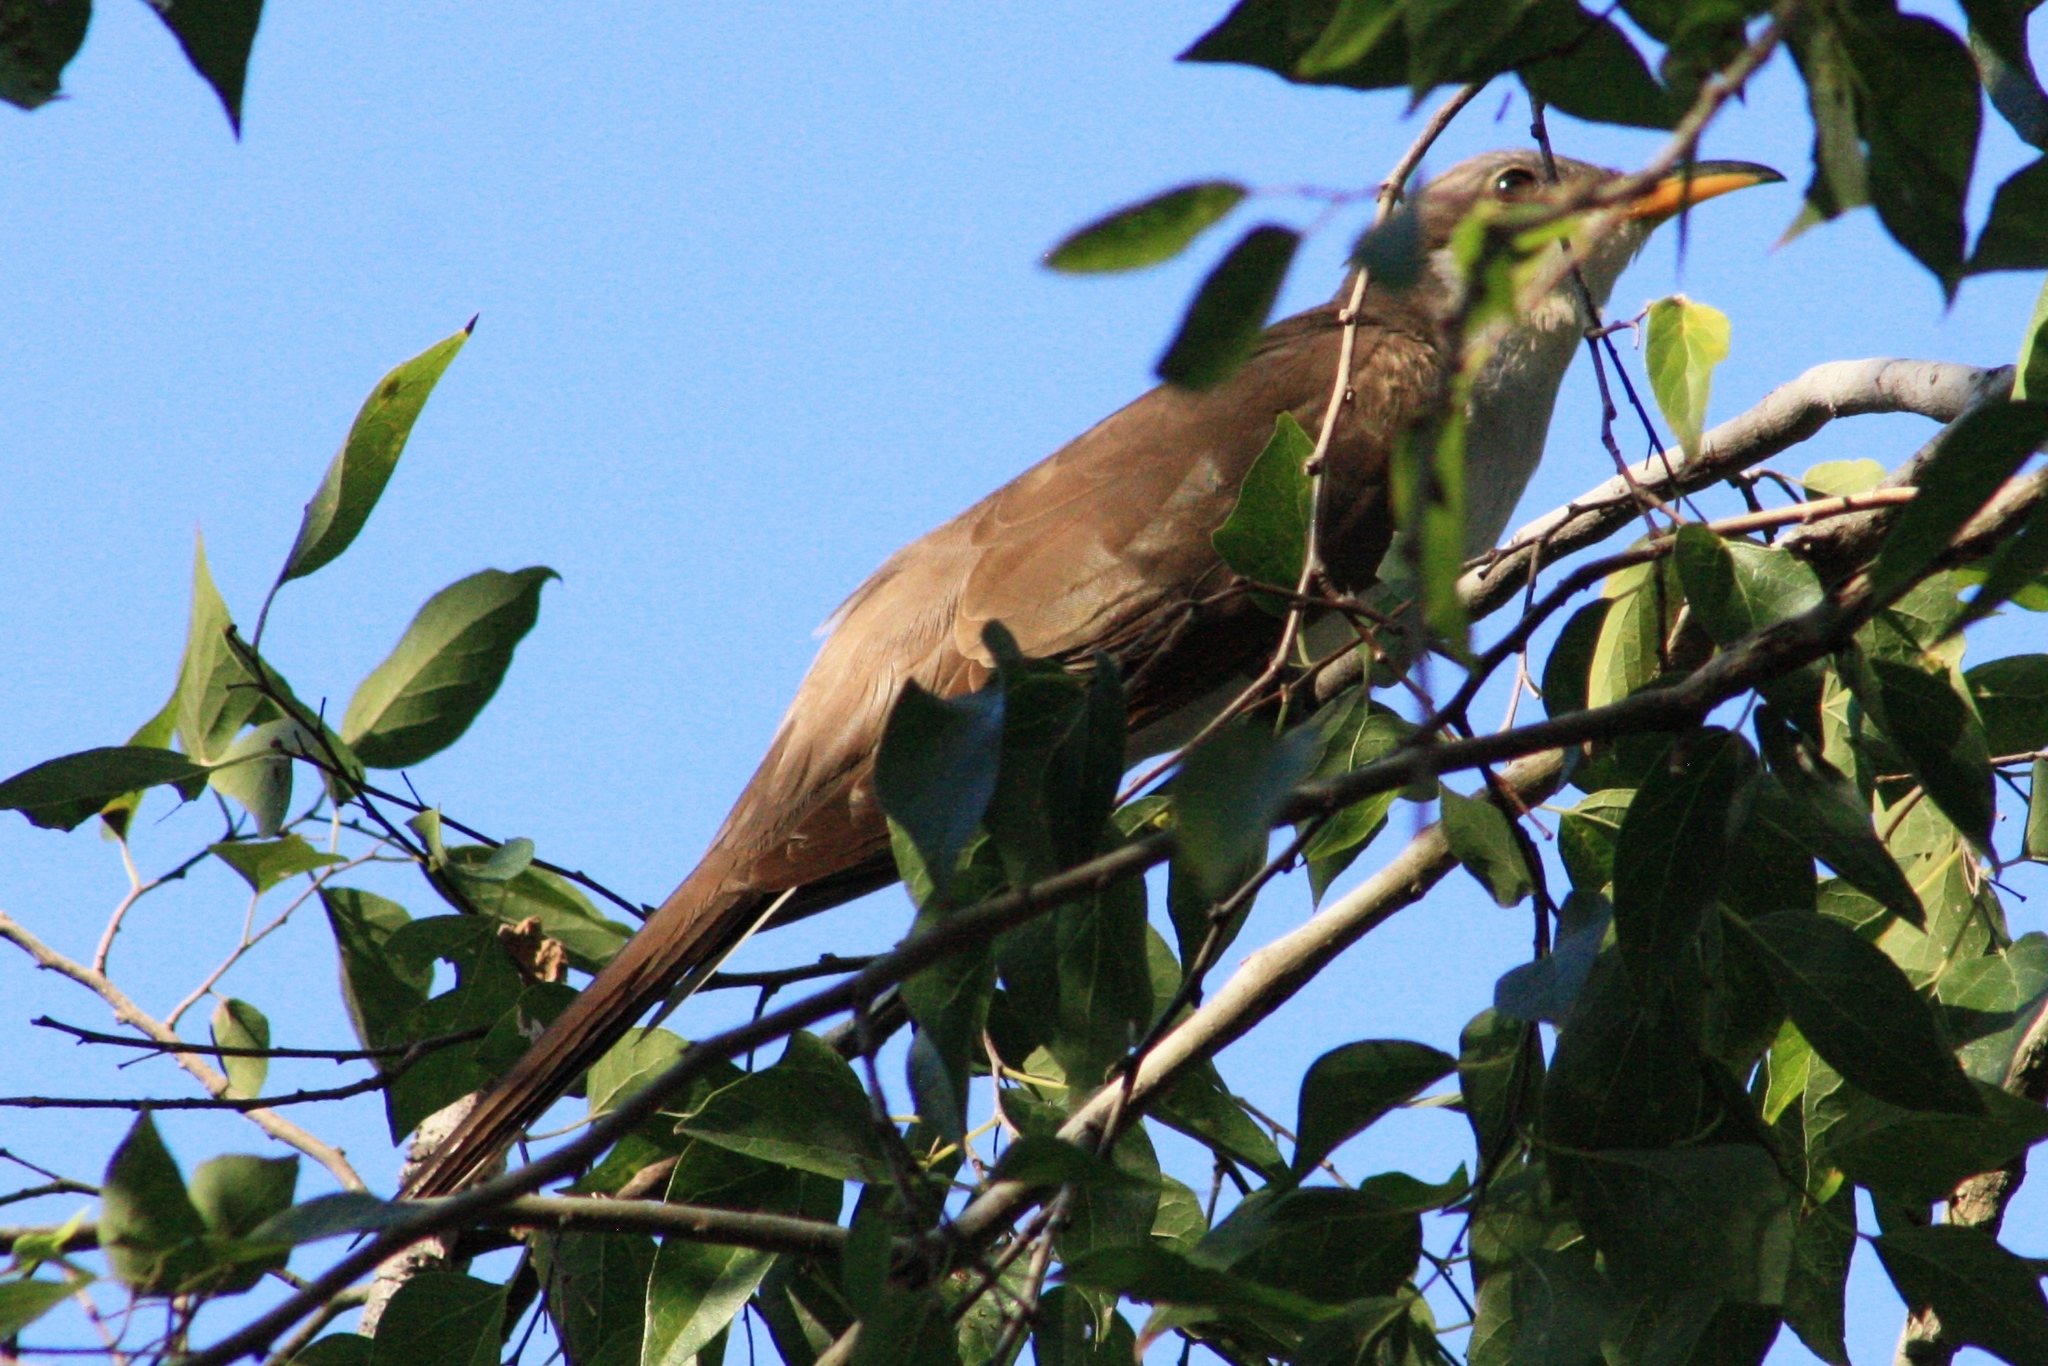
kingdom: Animalia
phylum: Chordata
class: Aves
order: Cuculiformes
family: Cuculidae
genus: Coccyzus
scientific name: Coccyzus americanus
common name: Yellow-billed cuckoo
